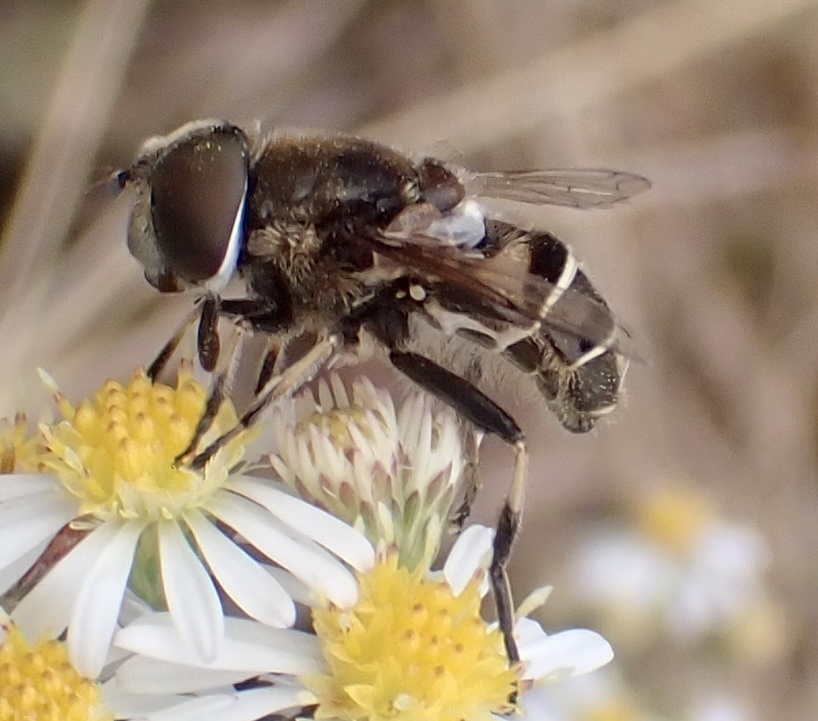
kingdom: Animalia
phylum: Arthropoda
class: Insecta
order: Diptera
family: Syrphidae
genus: Eristalis
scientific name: Eristalis dimidiata
